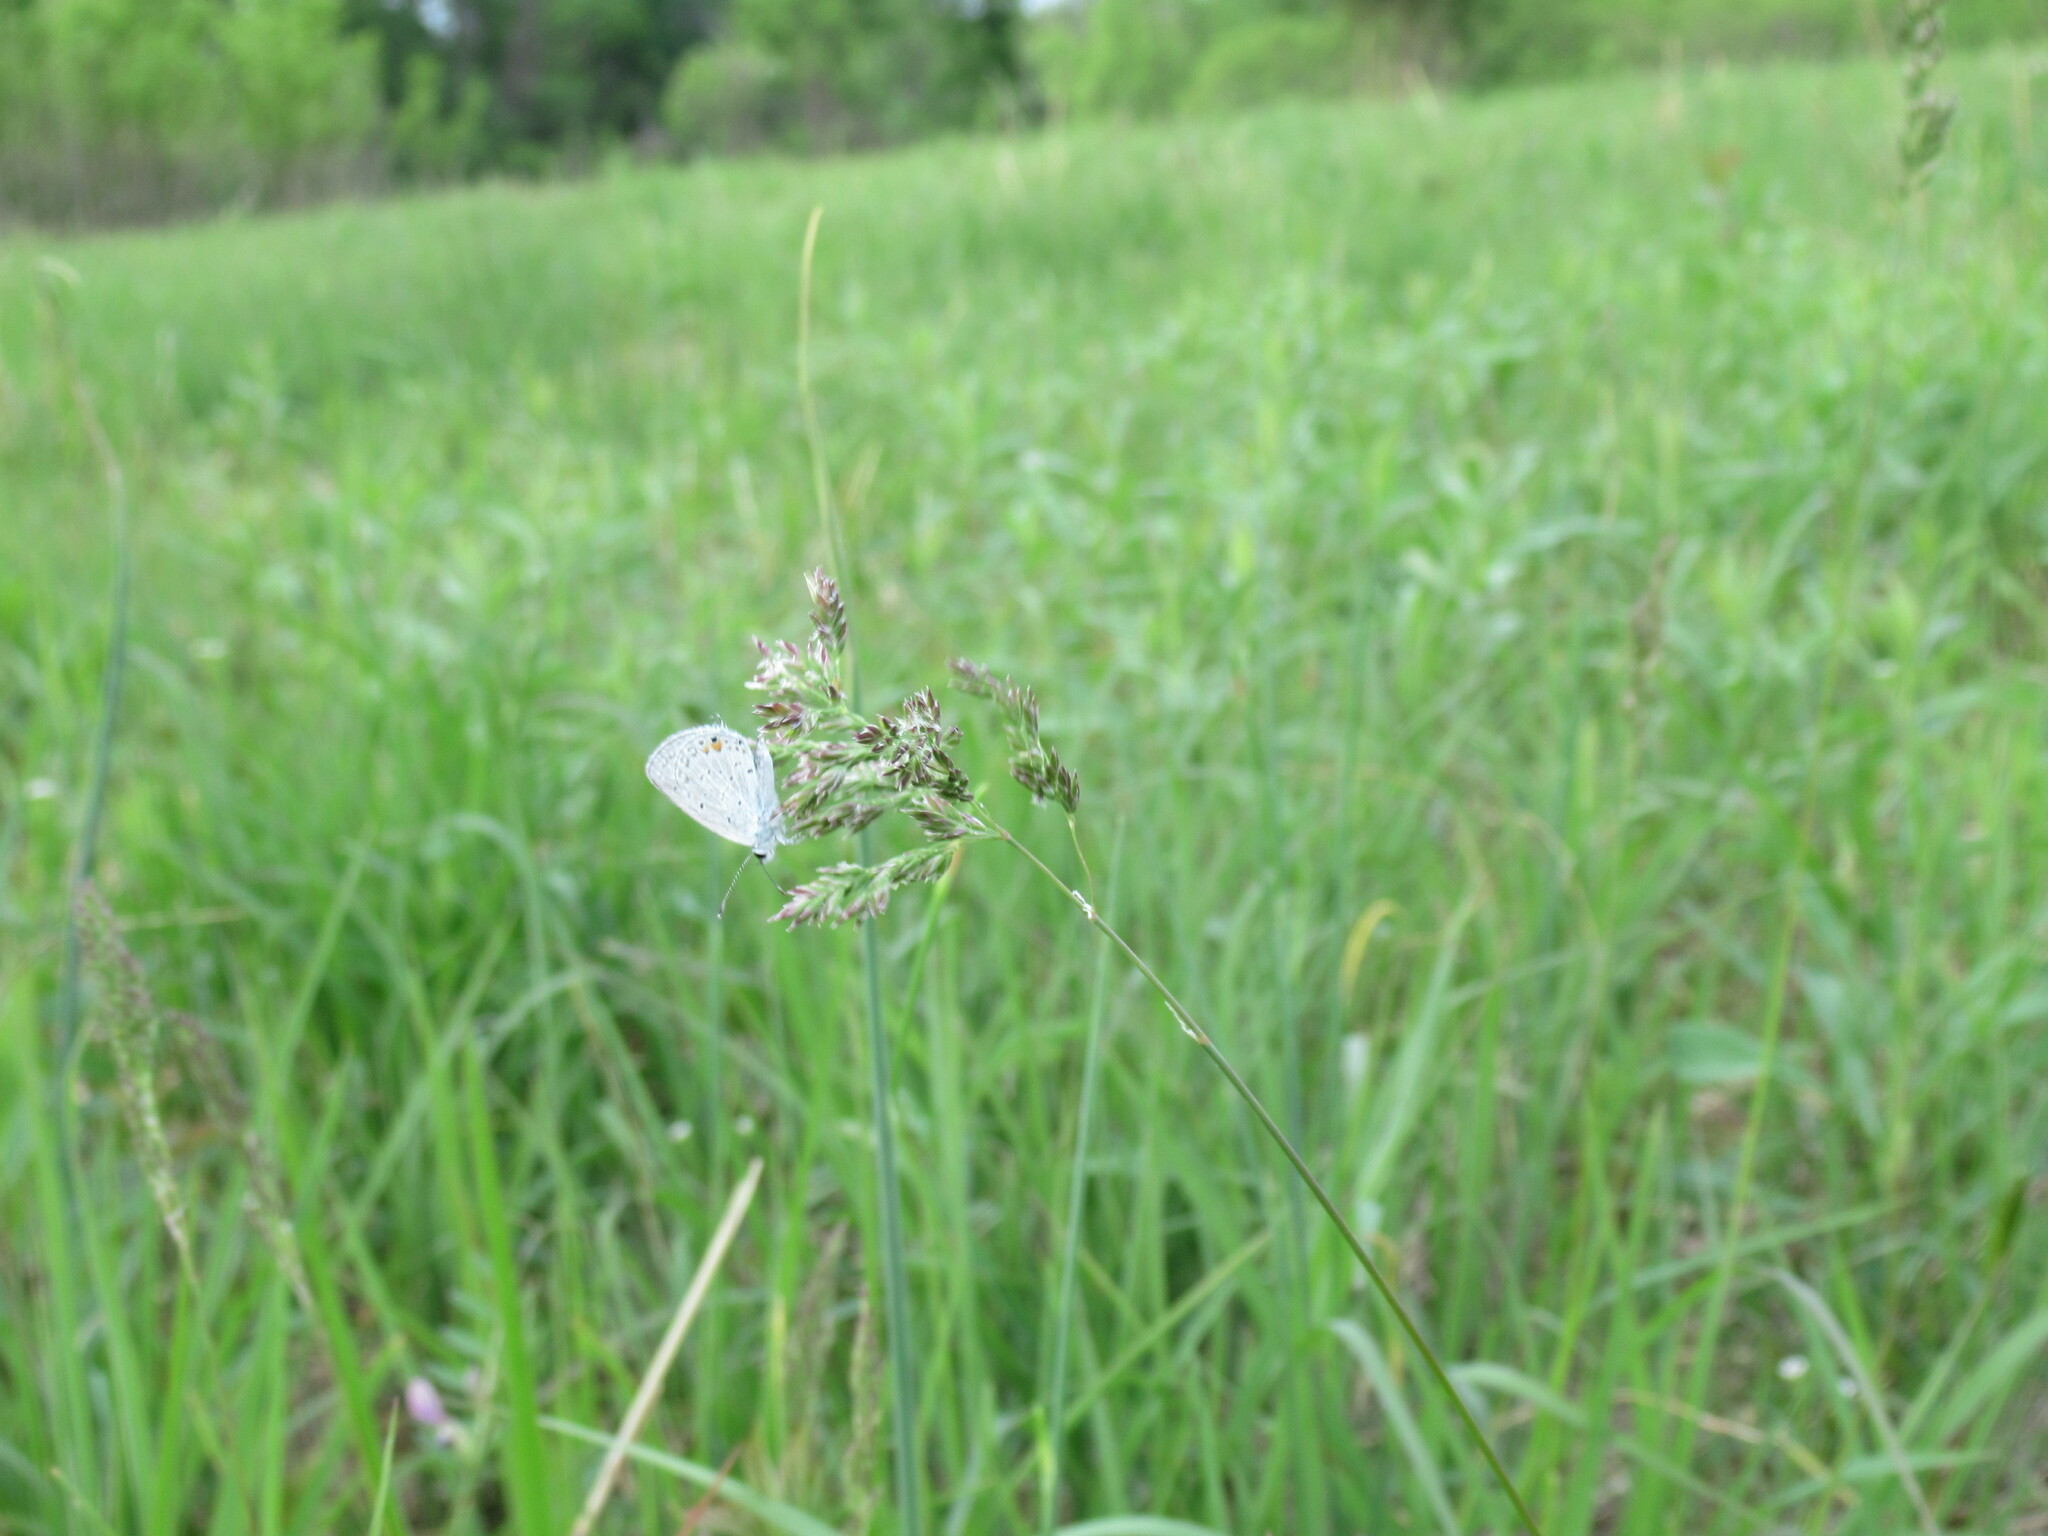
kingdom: Animalia
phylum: Arthropoda
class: Insecta
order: Lepidoptera
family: Lycaenidae
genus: Elkalyce
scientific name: Elkalyce comyntas
